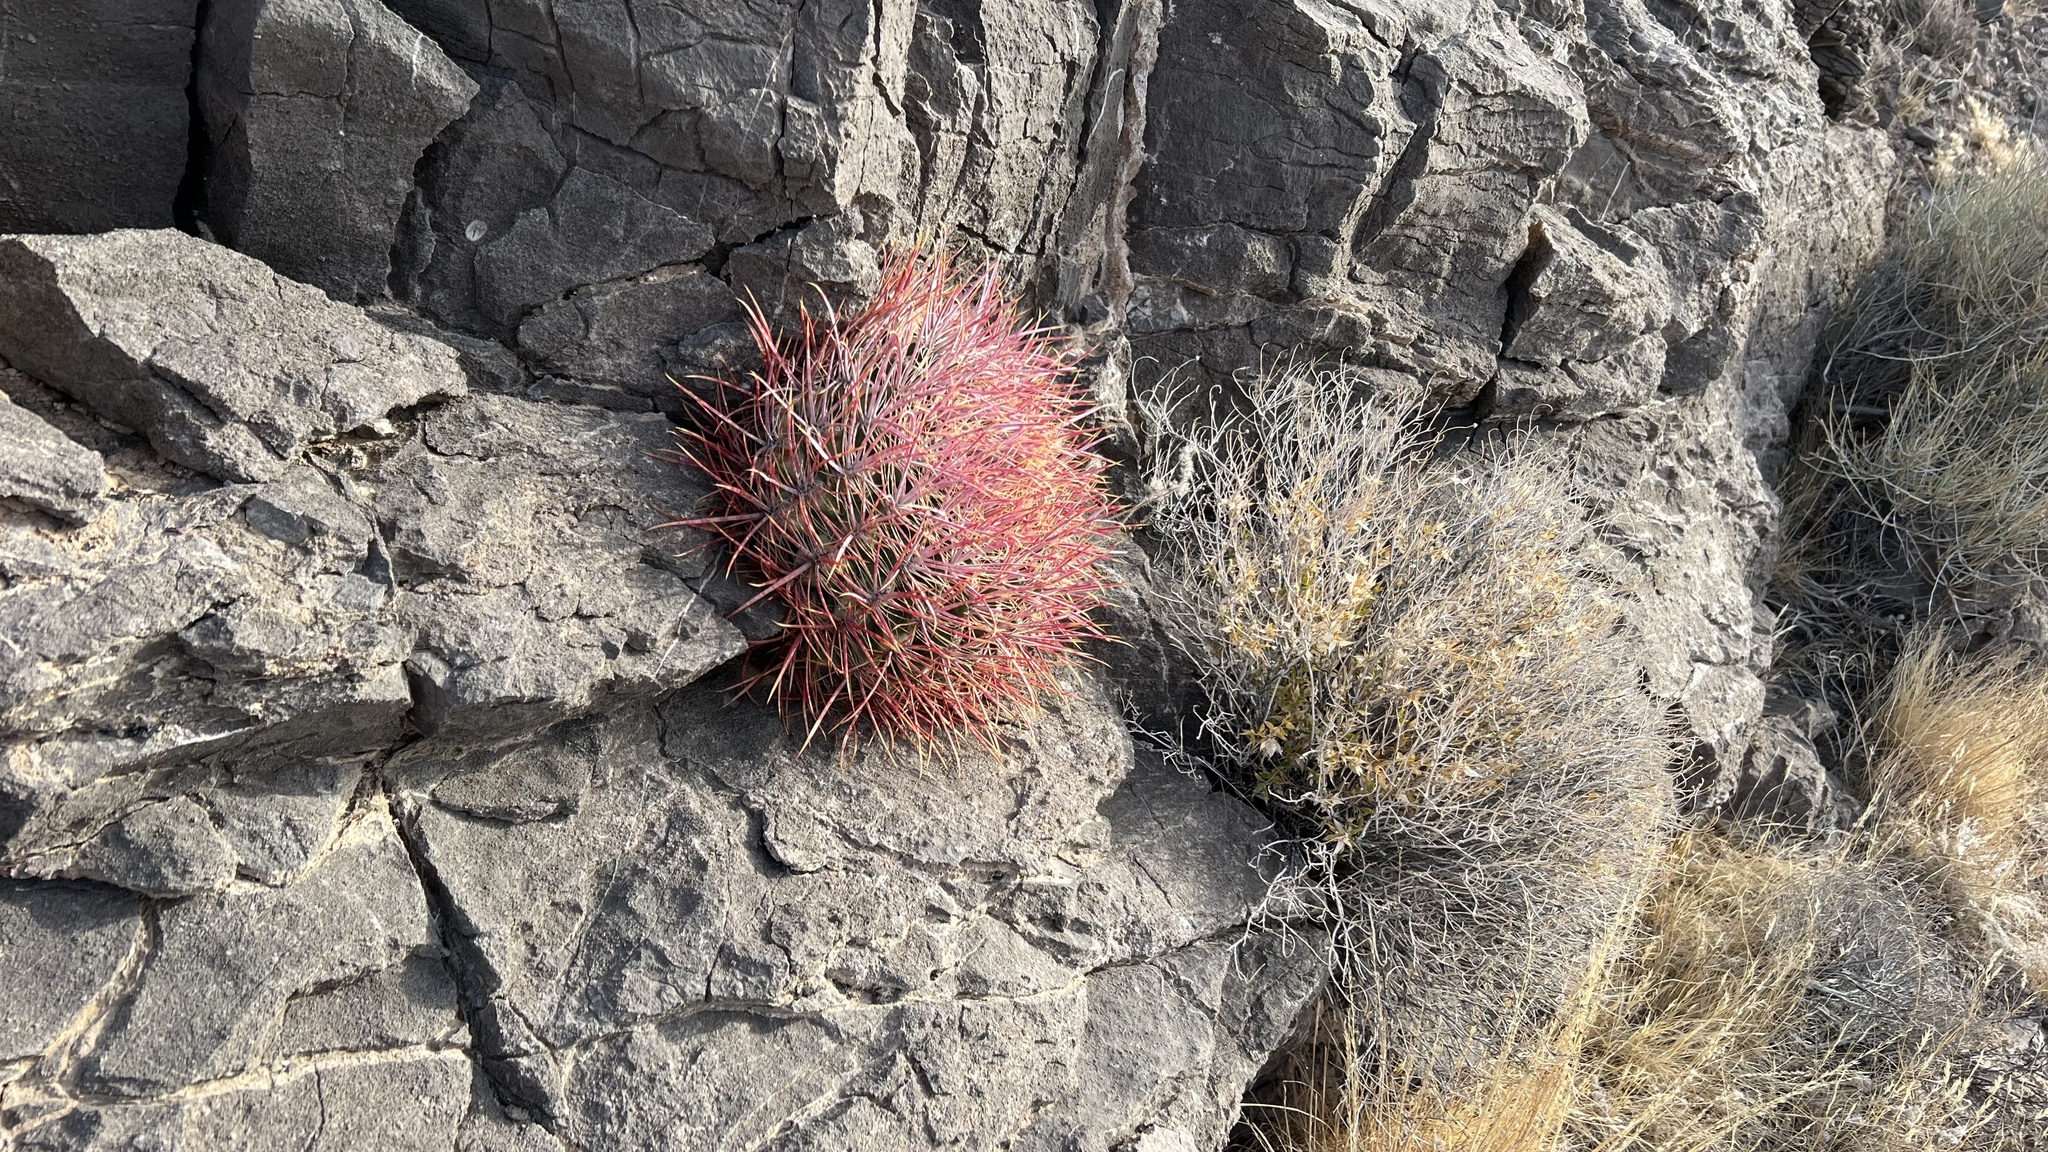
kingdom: Plantae
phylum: Tracheophyta
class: Magnoliopsida
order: Caryophyllales
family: Cactaceae
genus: Ferocactus
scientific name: Ferocactus cylindraceus
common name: California barrel cactus
